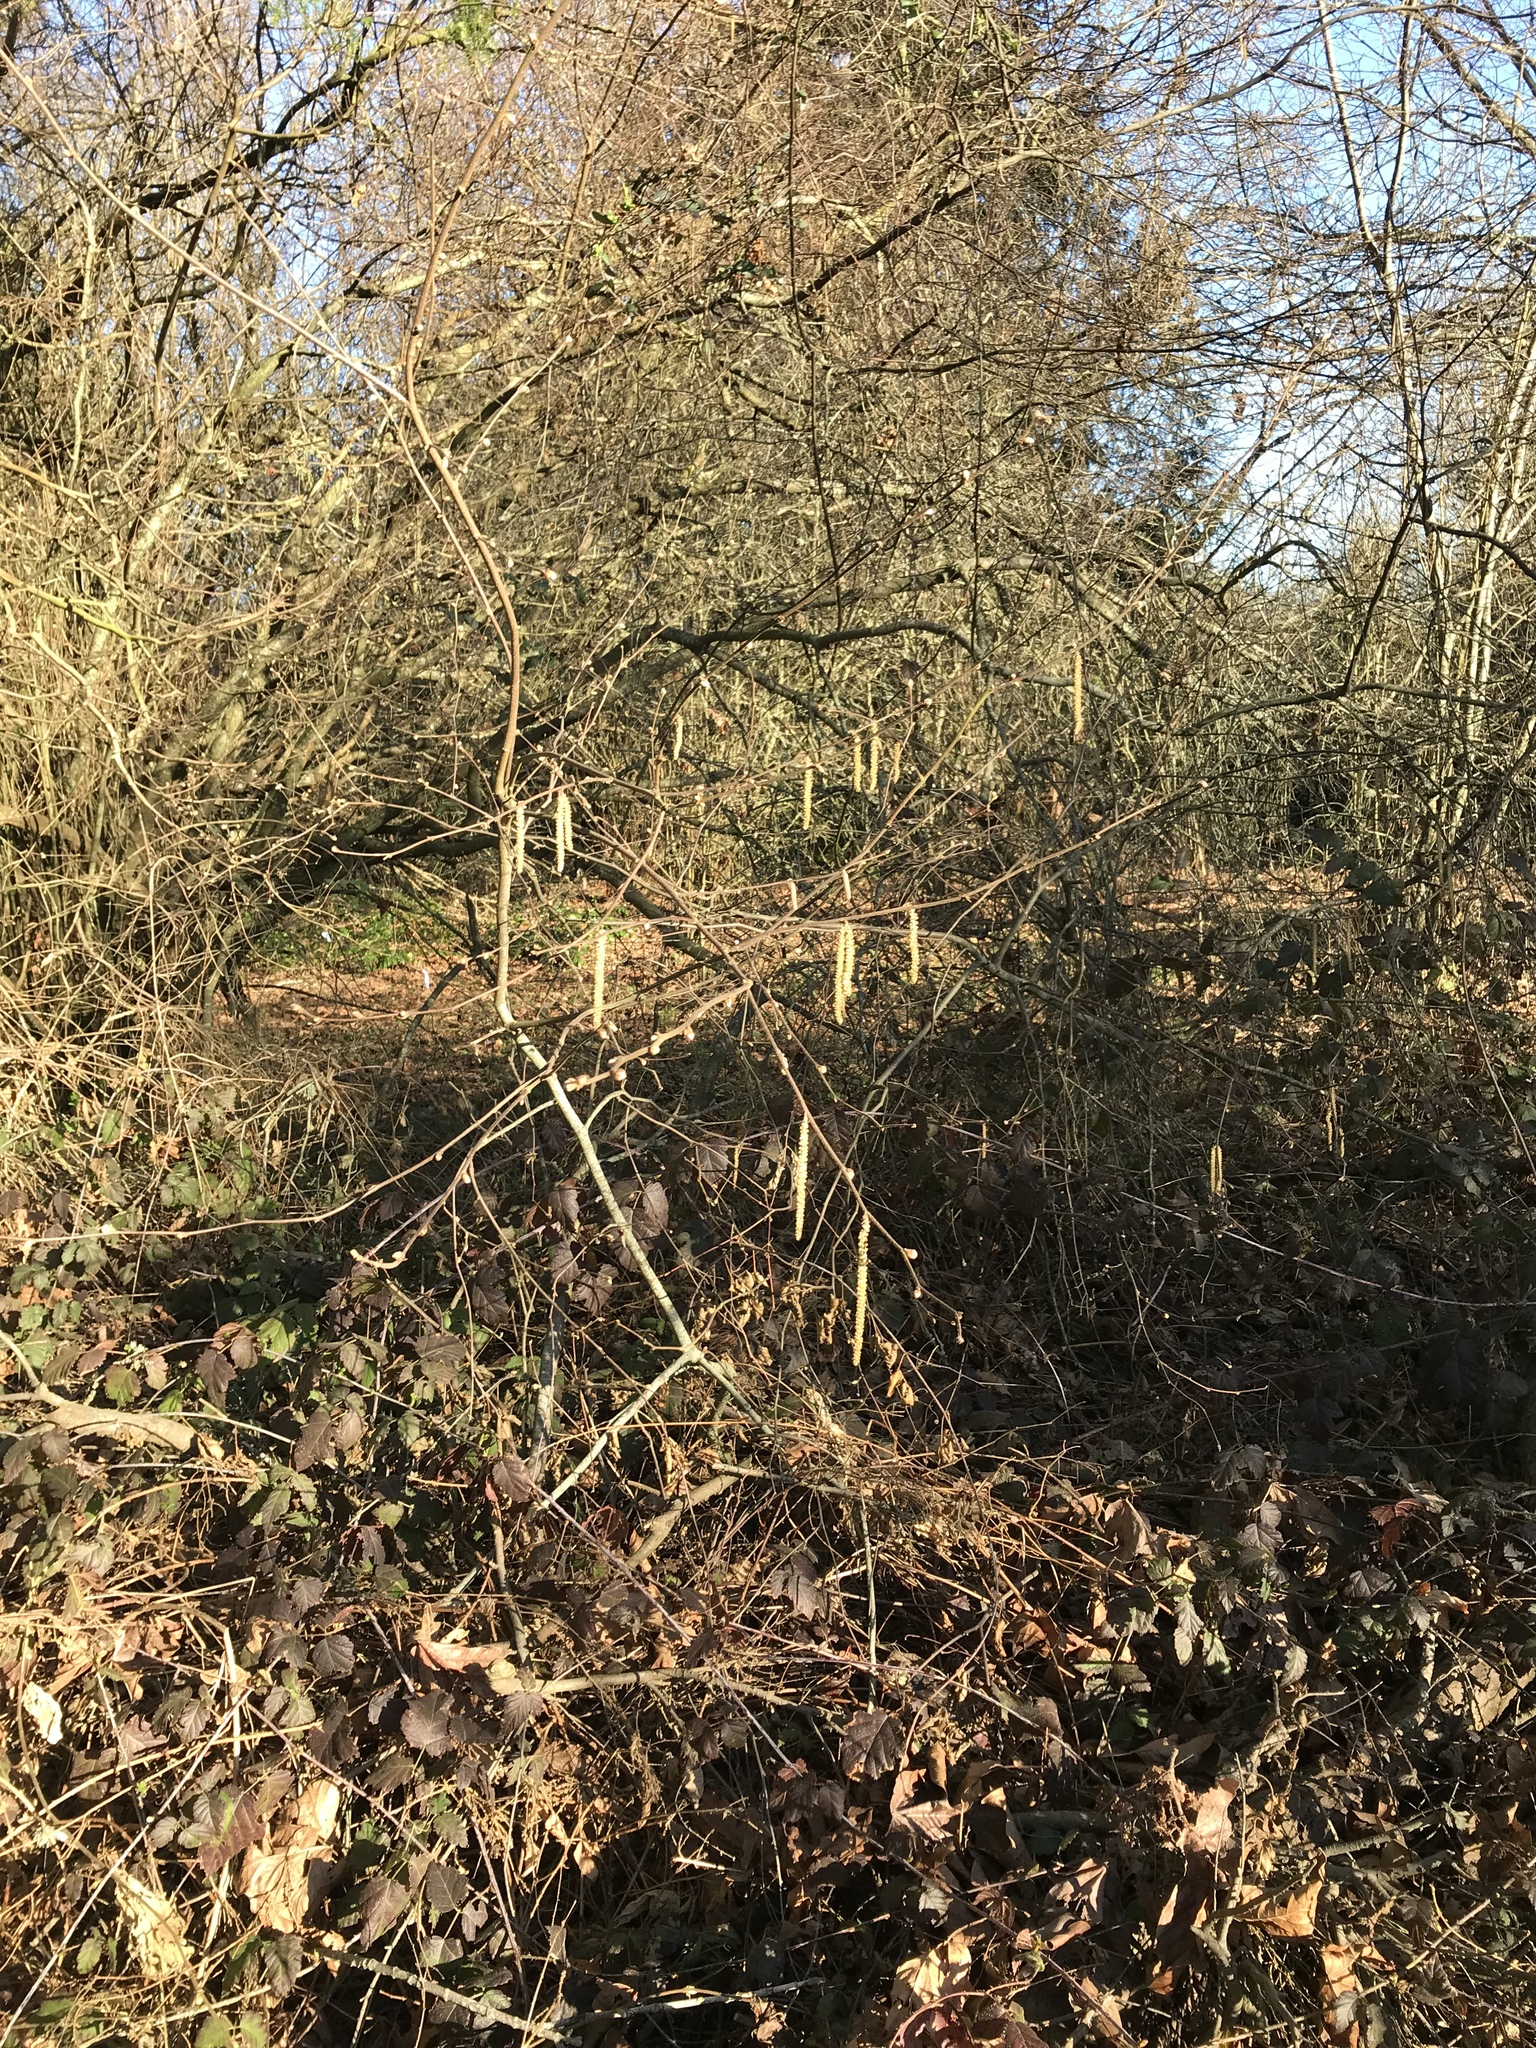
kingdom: Plantae
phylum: Tracheophyta
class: Magnoliopsida
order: Fagales
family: Betulaceae
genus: Corylus
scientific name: Corylus cornuta
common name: Beaked hazel
